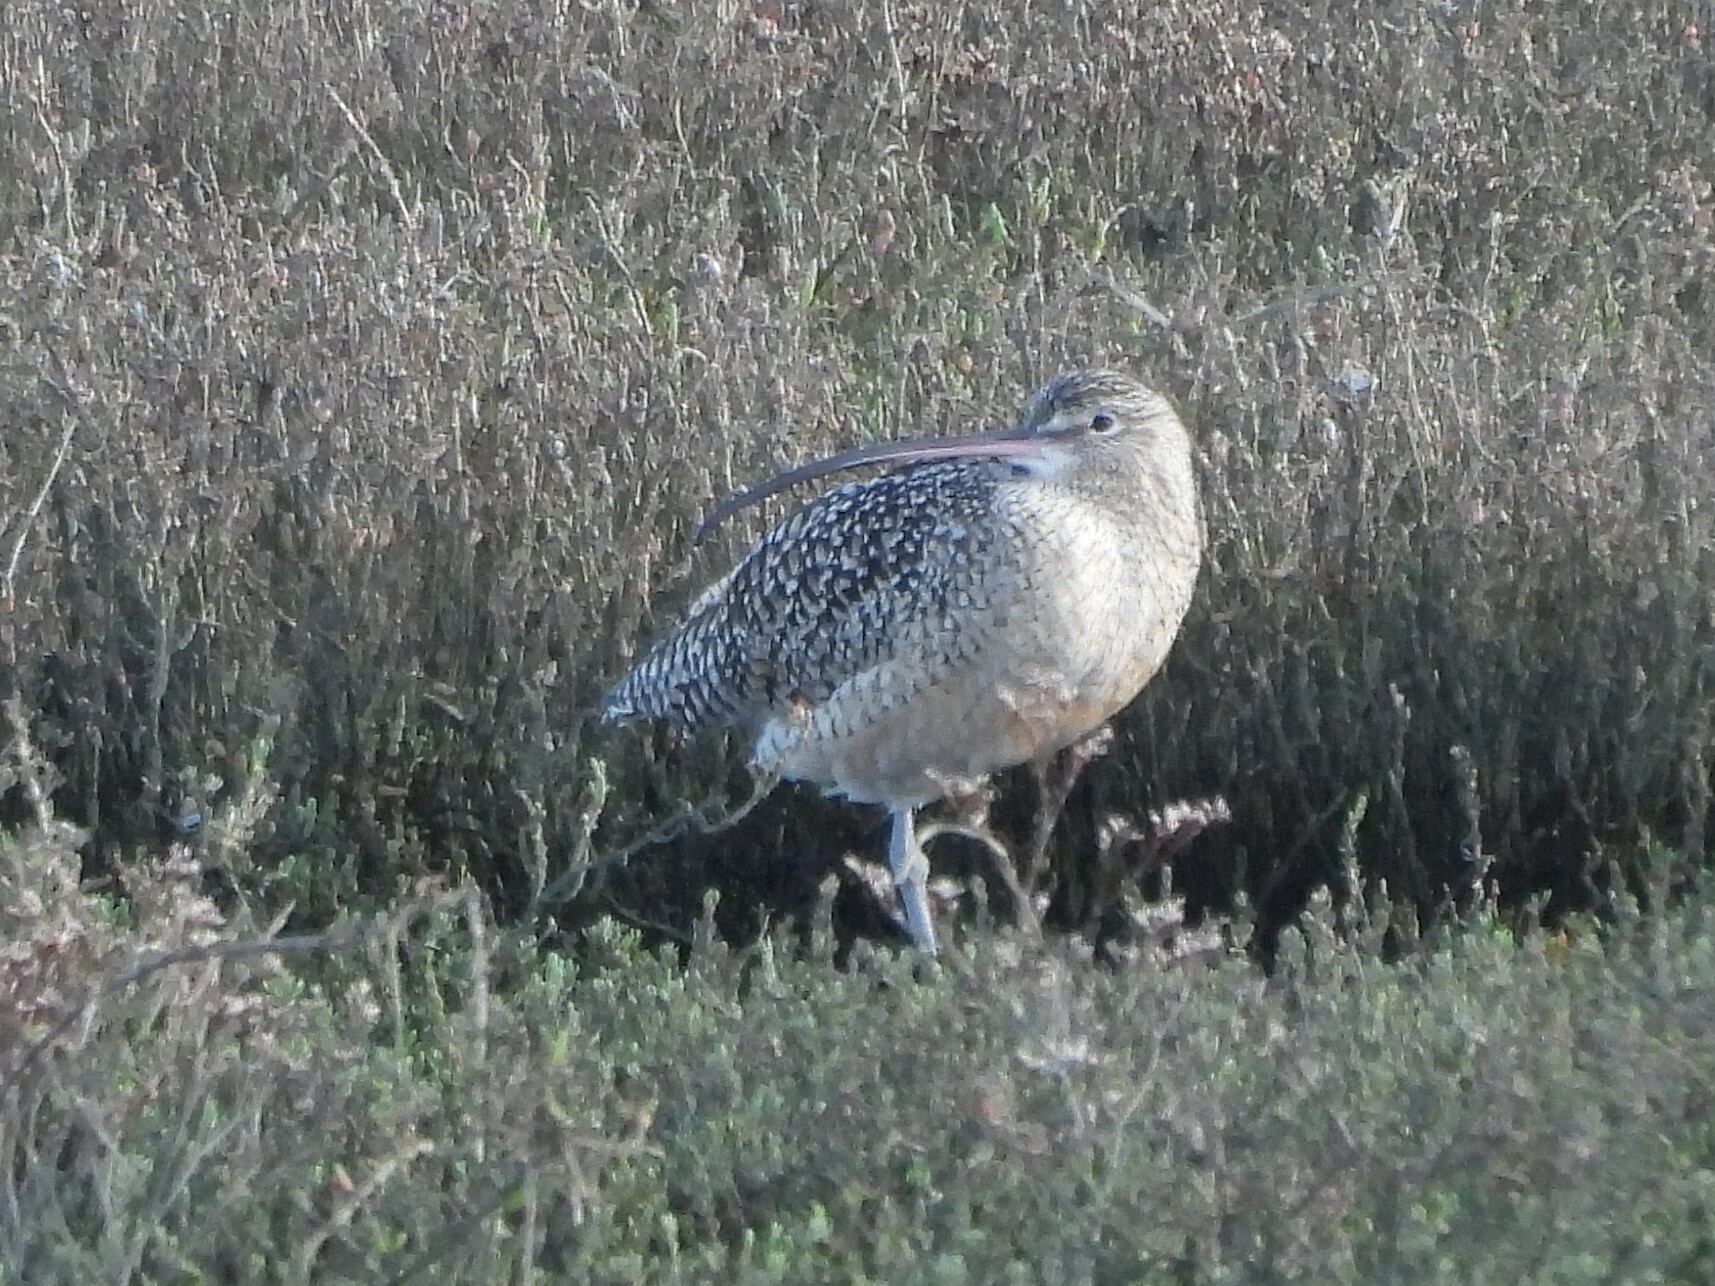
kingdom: Animalia
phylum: Chordata
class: Aves
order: Charadriiformes
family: Scolopacidae
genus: Numenius
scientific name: Numenius americanus
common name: Long-billed curlew
